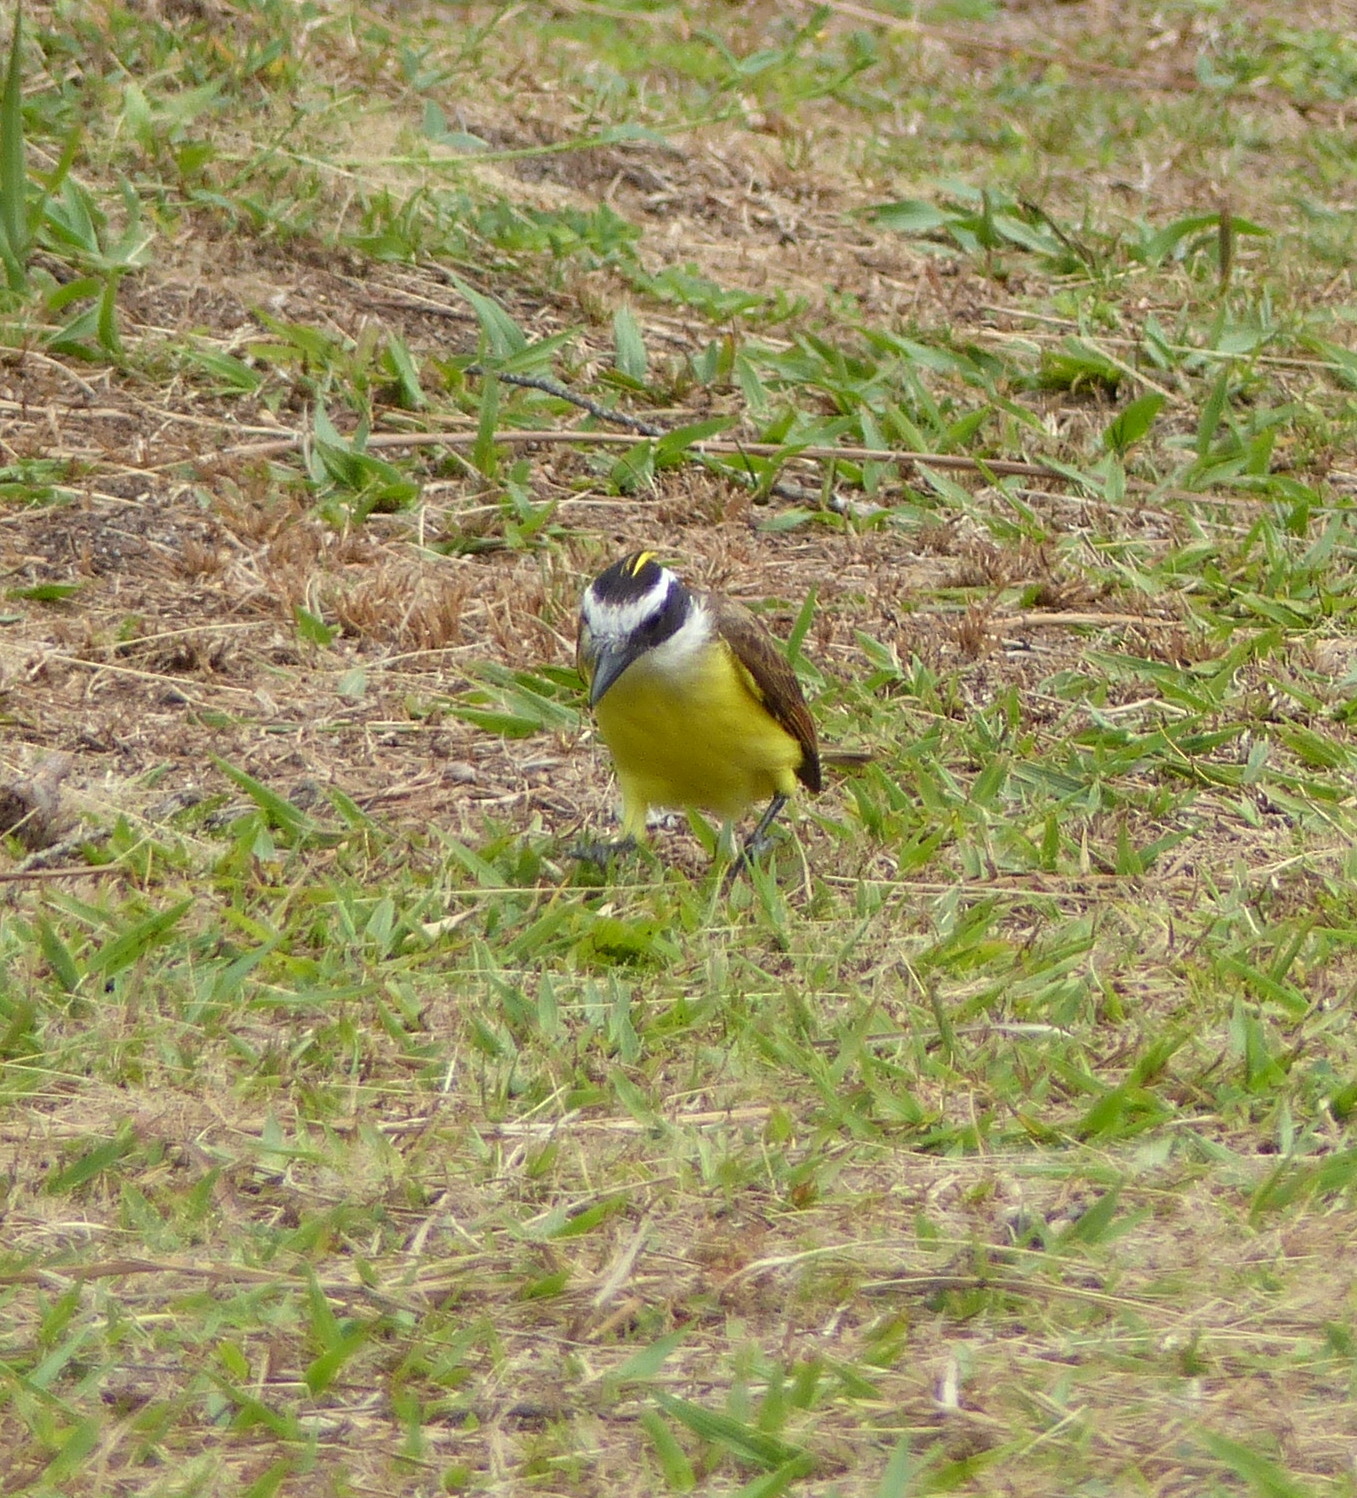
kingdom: Animalia
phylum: Chordata
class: Aves
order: Passeriformes
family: Tyrannidae
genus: Pitangus
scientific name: Pitangus sulphuratus
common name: Great kiskadee
